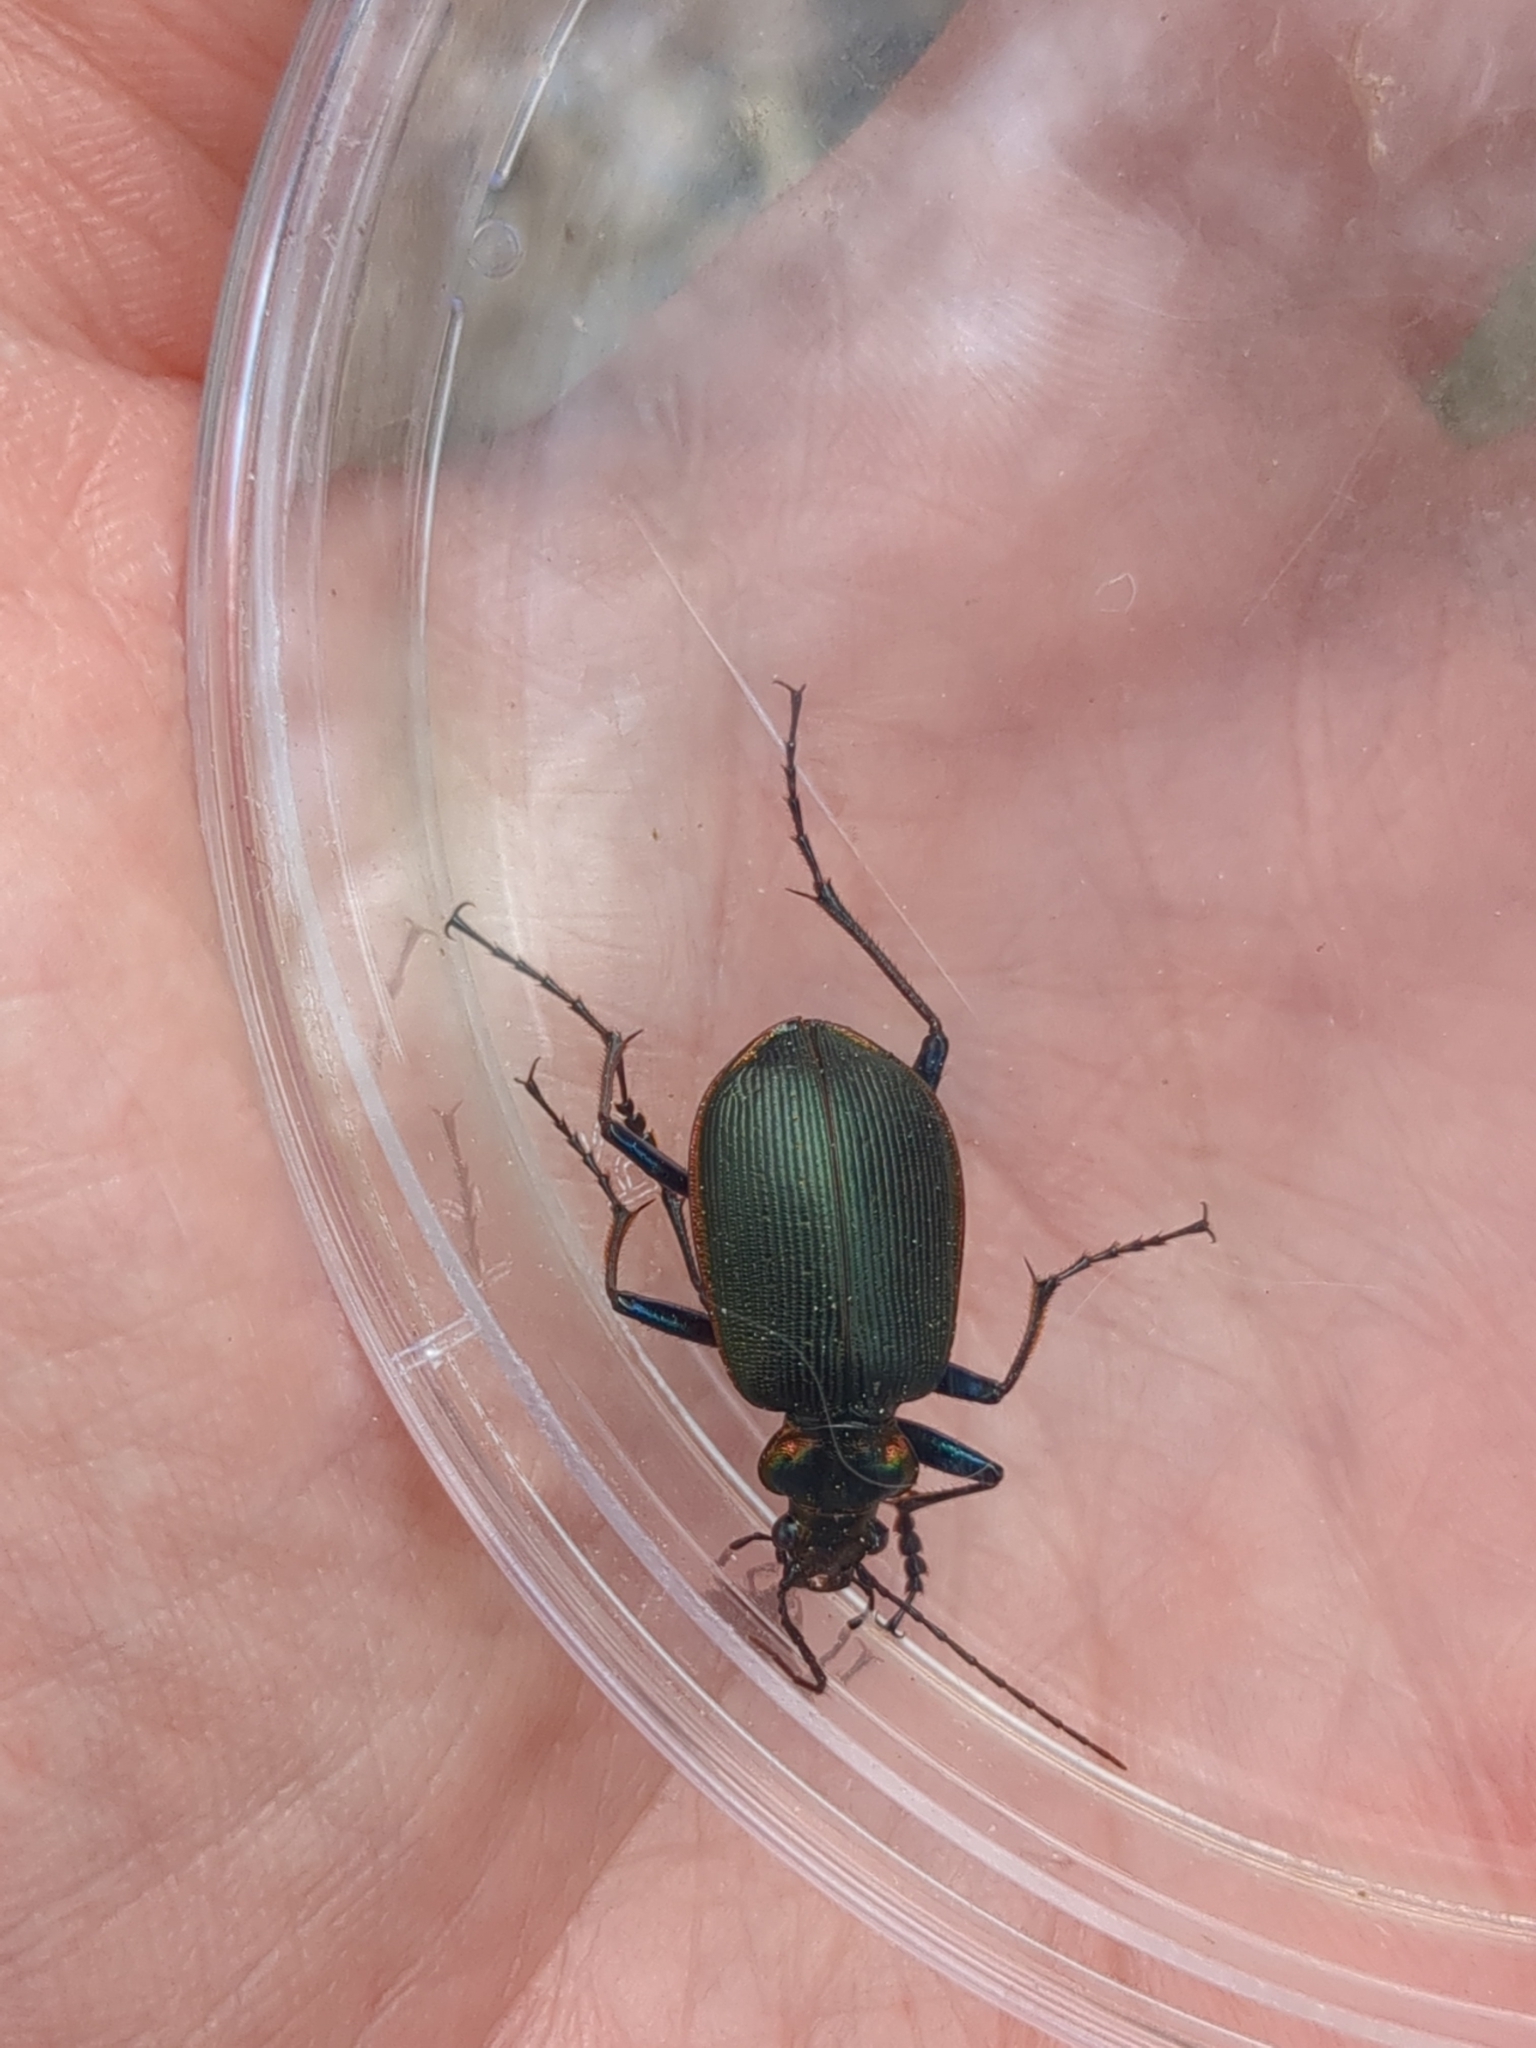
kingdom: Animalia
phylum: Arthropoda
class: Insecta
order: Coleoptera
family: Carabidae
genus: Calosoma
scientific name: Calosoma wilcoxi
